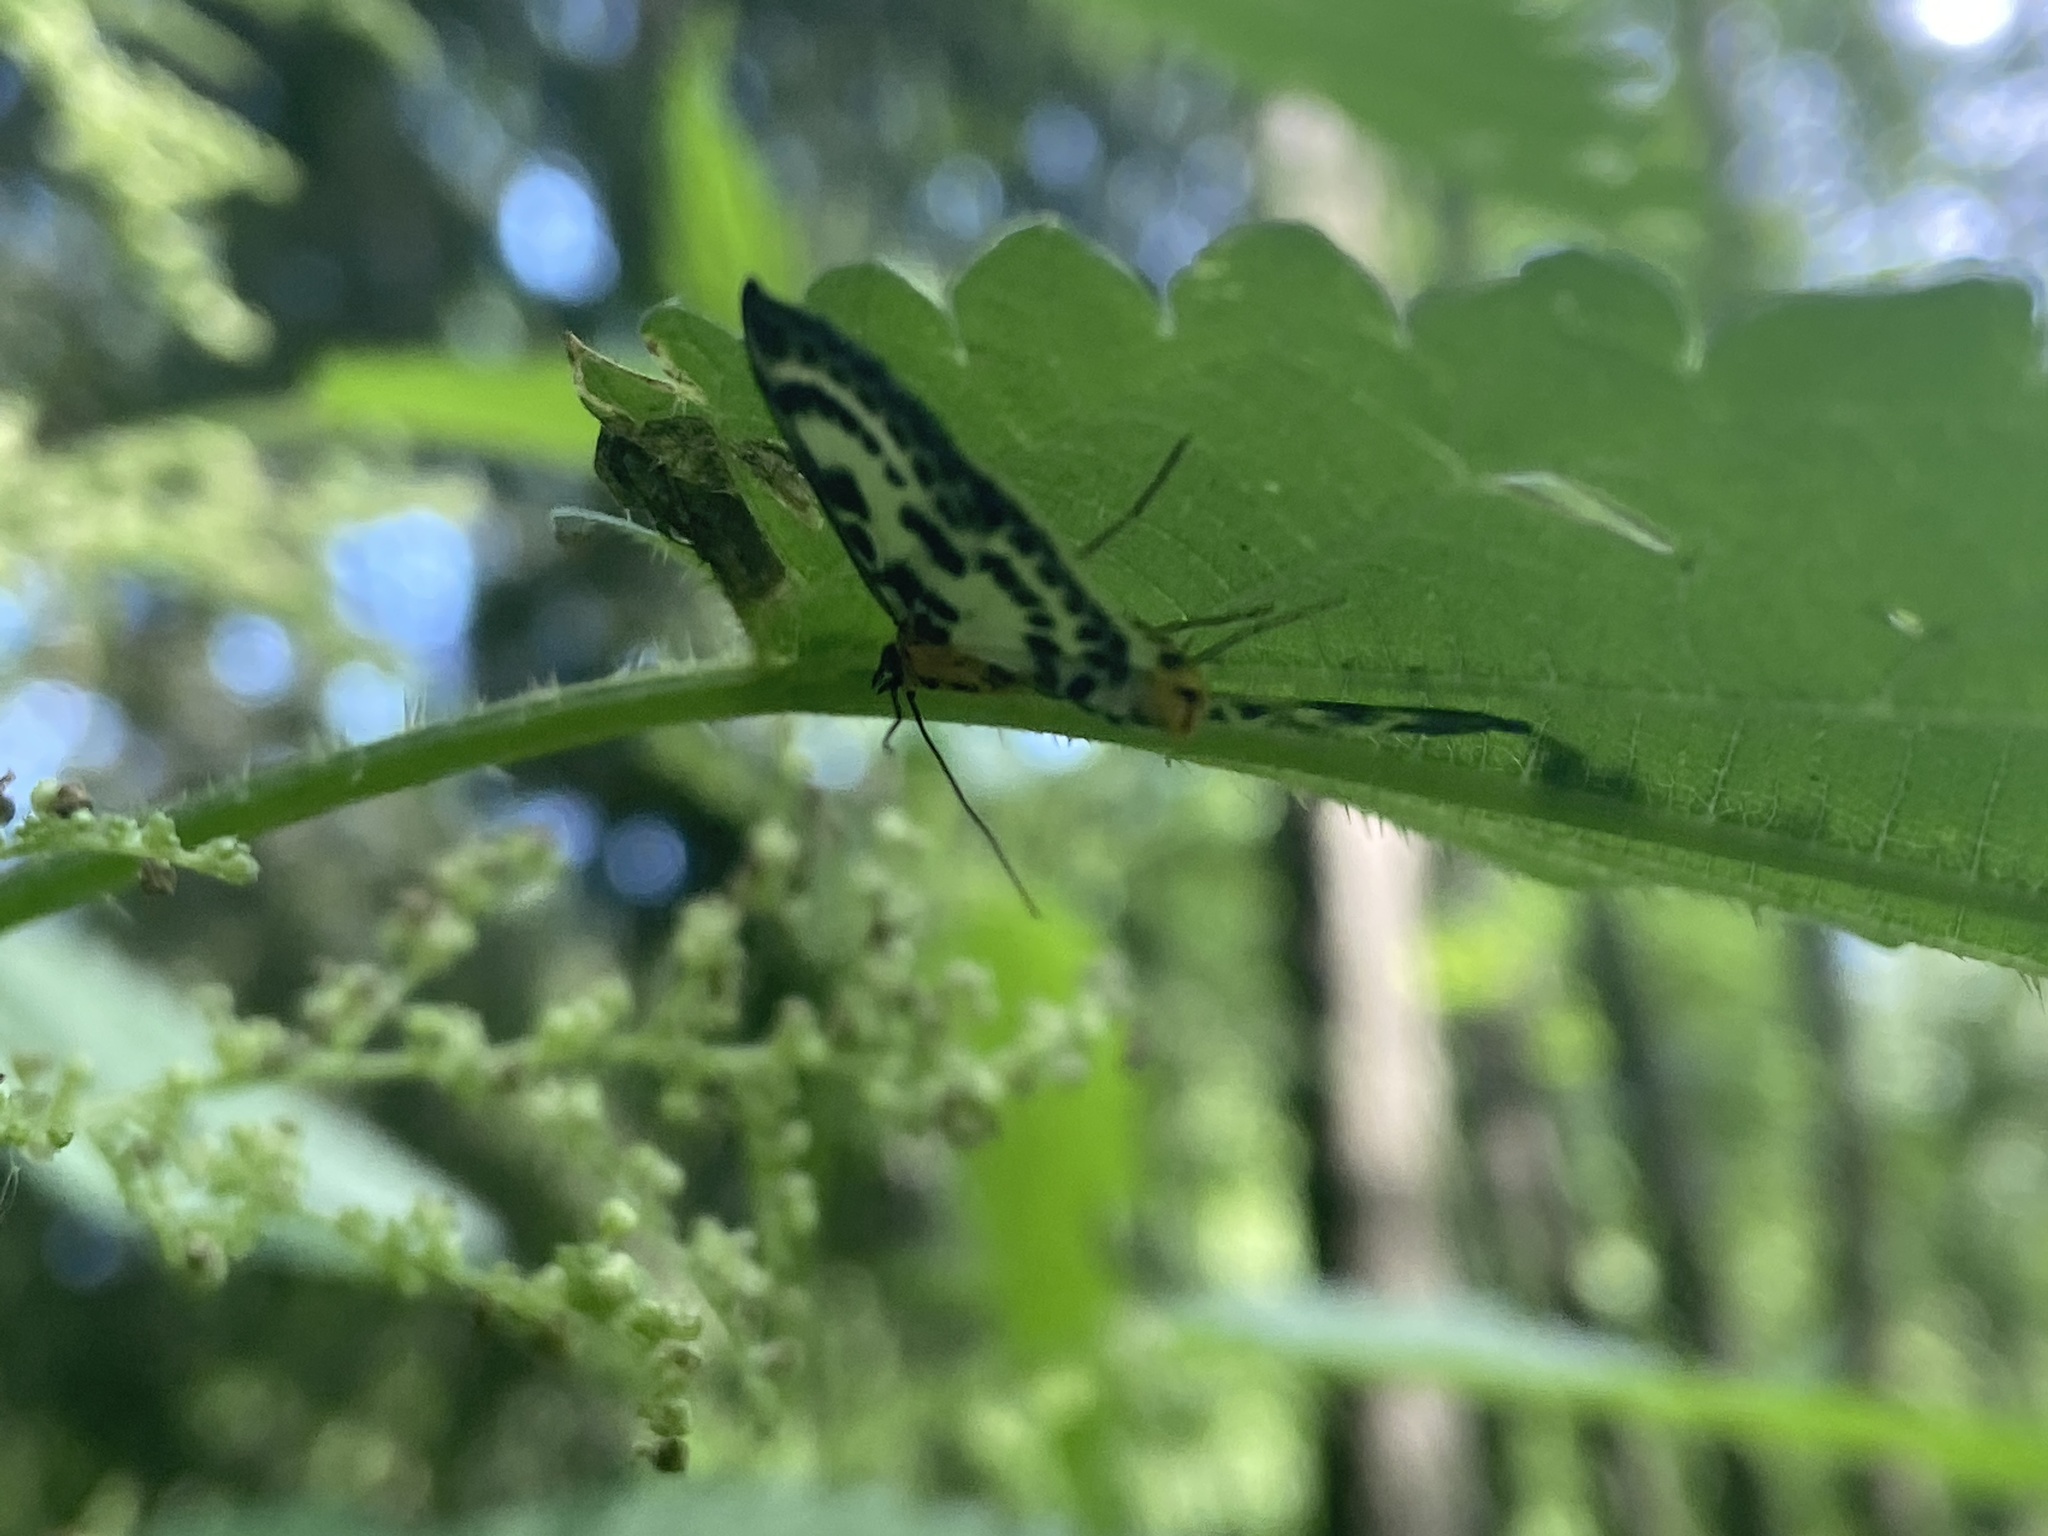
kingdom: Animalia
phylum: Arthropoda
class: Insecta
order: Lepidoptera
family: Crambidae
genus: Anania
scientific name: Anania hortulata
